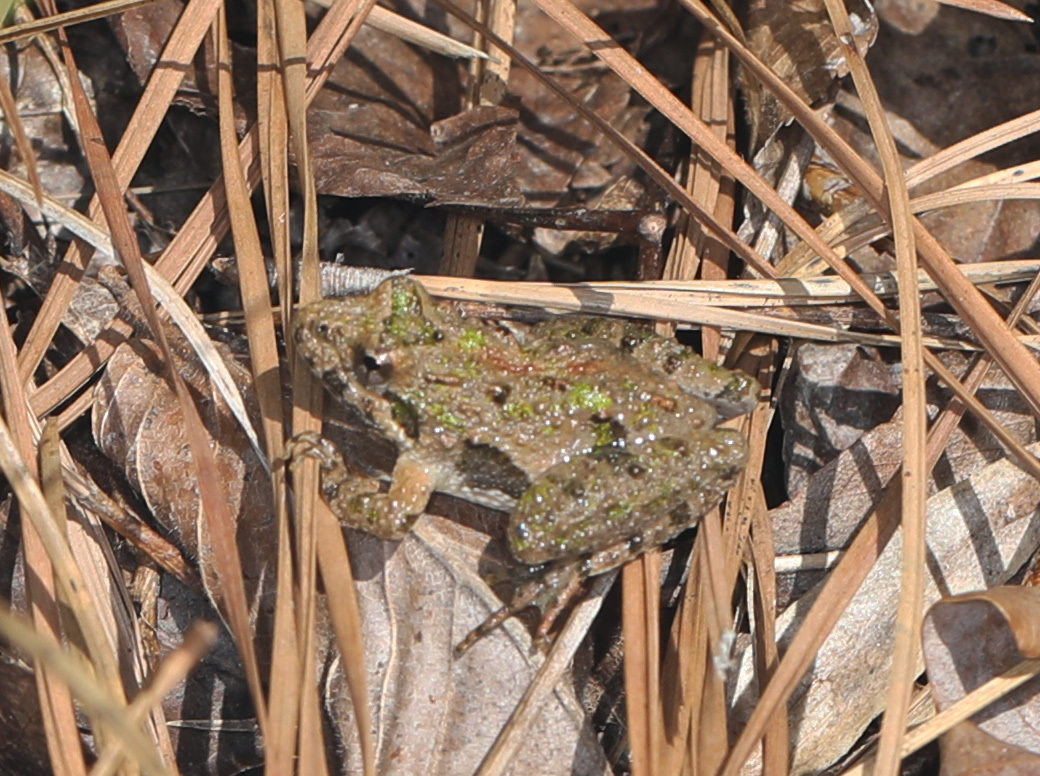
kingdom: Animalia
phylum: Chordata
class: Amphibia
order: Anura
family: Hylidae
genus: Acris
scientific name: Acris crepitans
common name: Northern cricket frog
